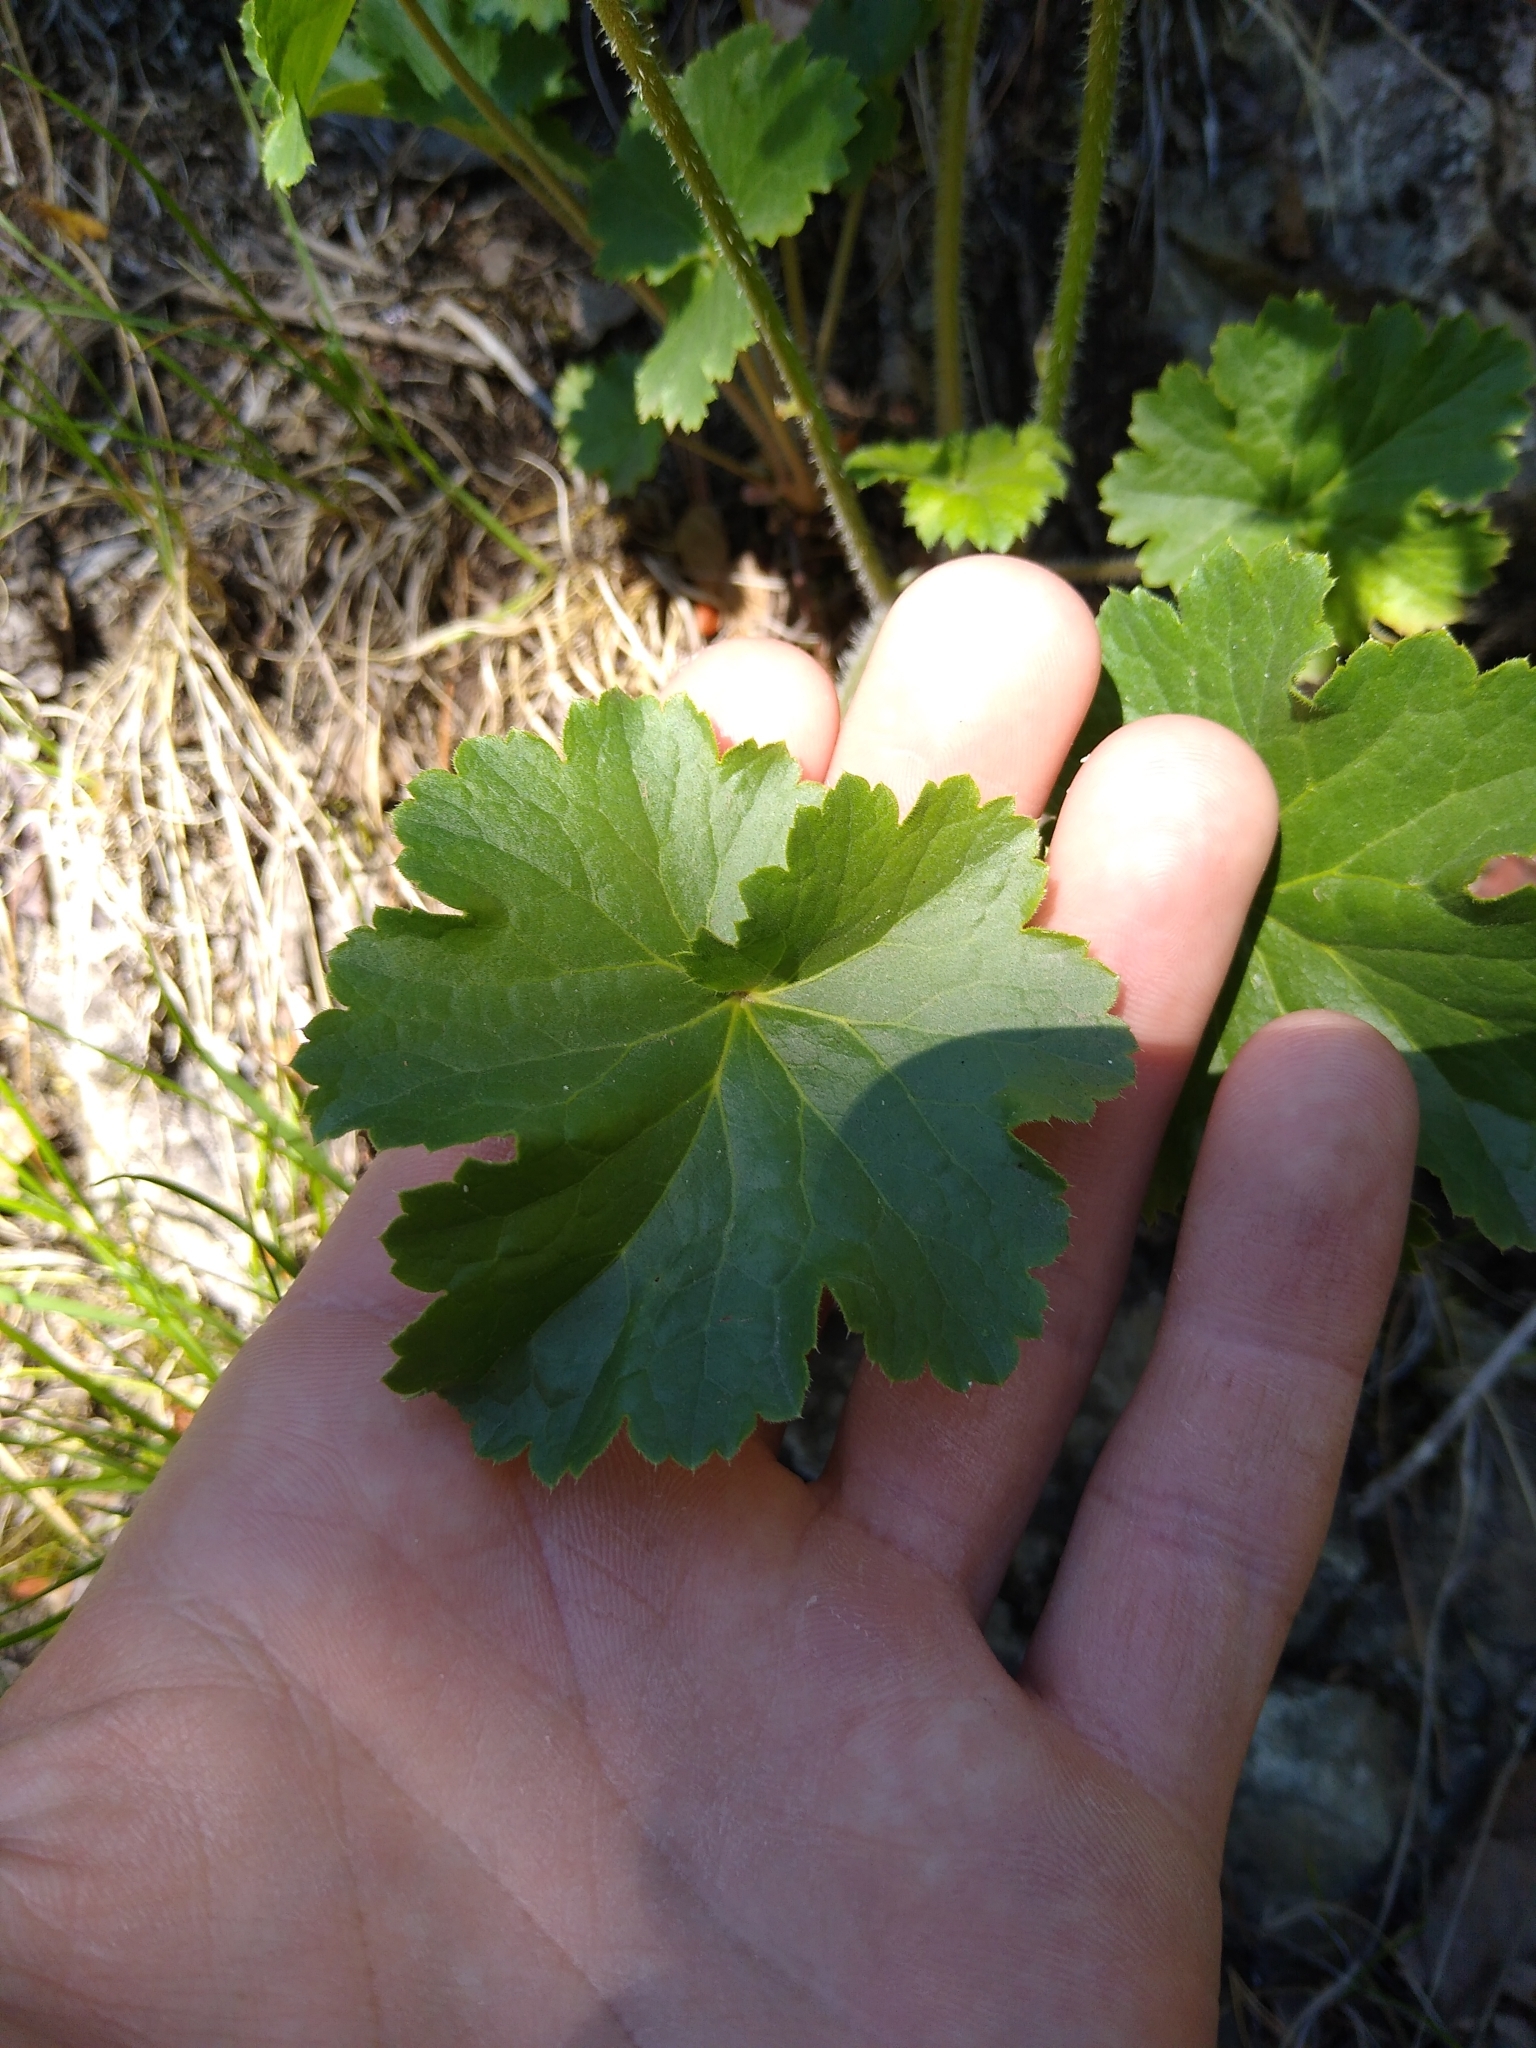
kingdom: Plantae
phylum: Tracheophyta
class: Magnoliopsida
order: Saxifragales
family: Saxifragaceae
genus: Heuchera
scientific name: Heuchera richardsonii
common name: Richardson's alumroot
